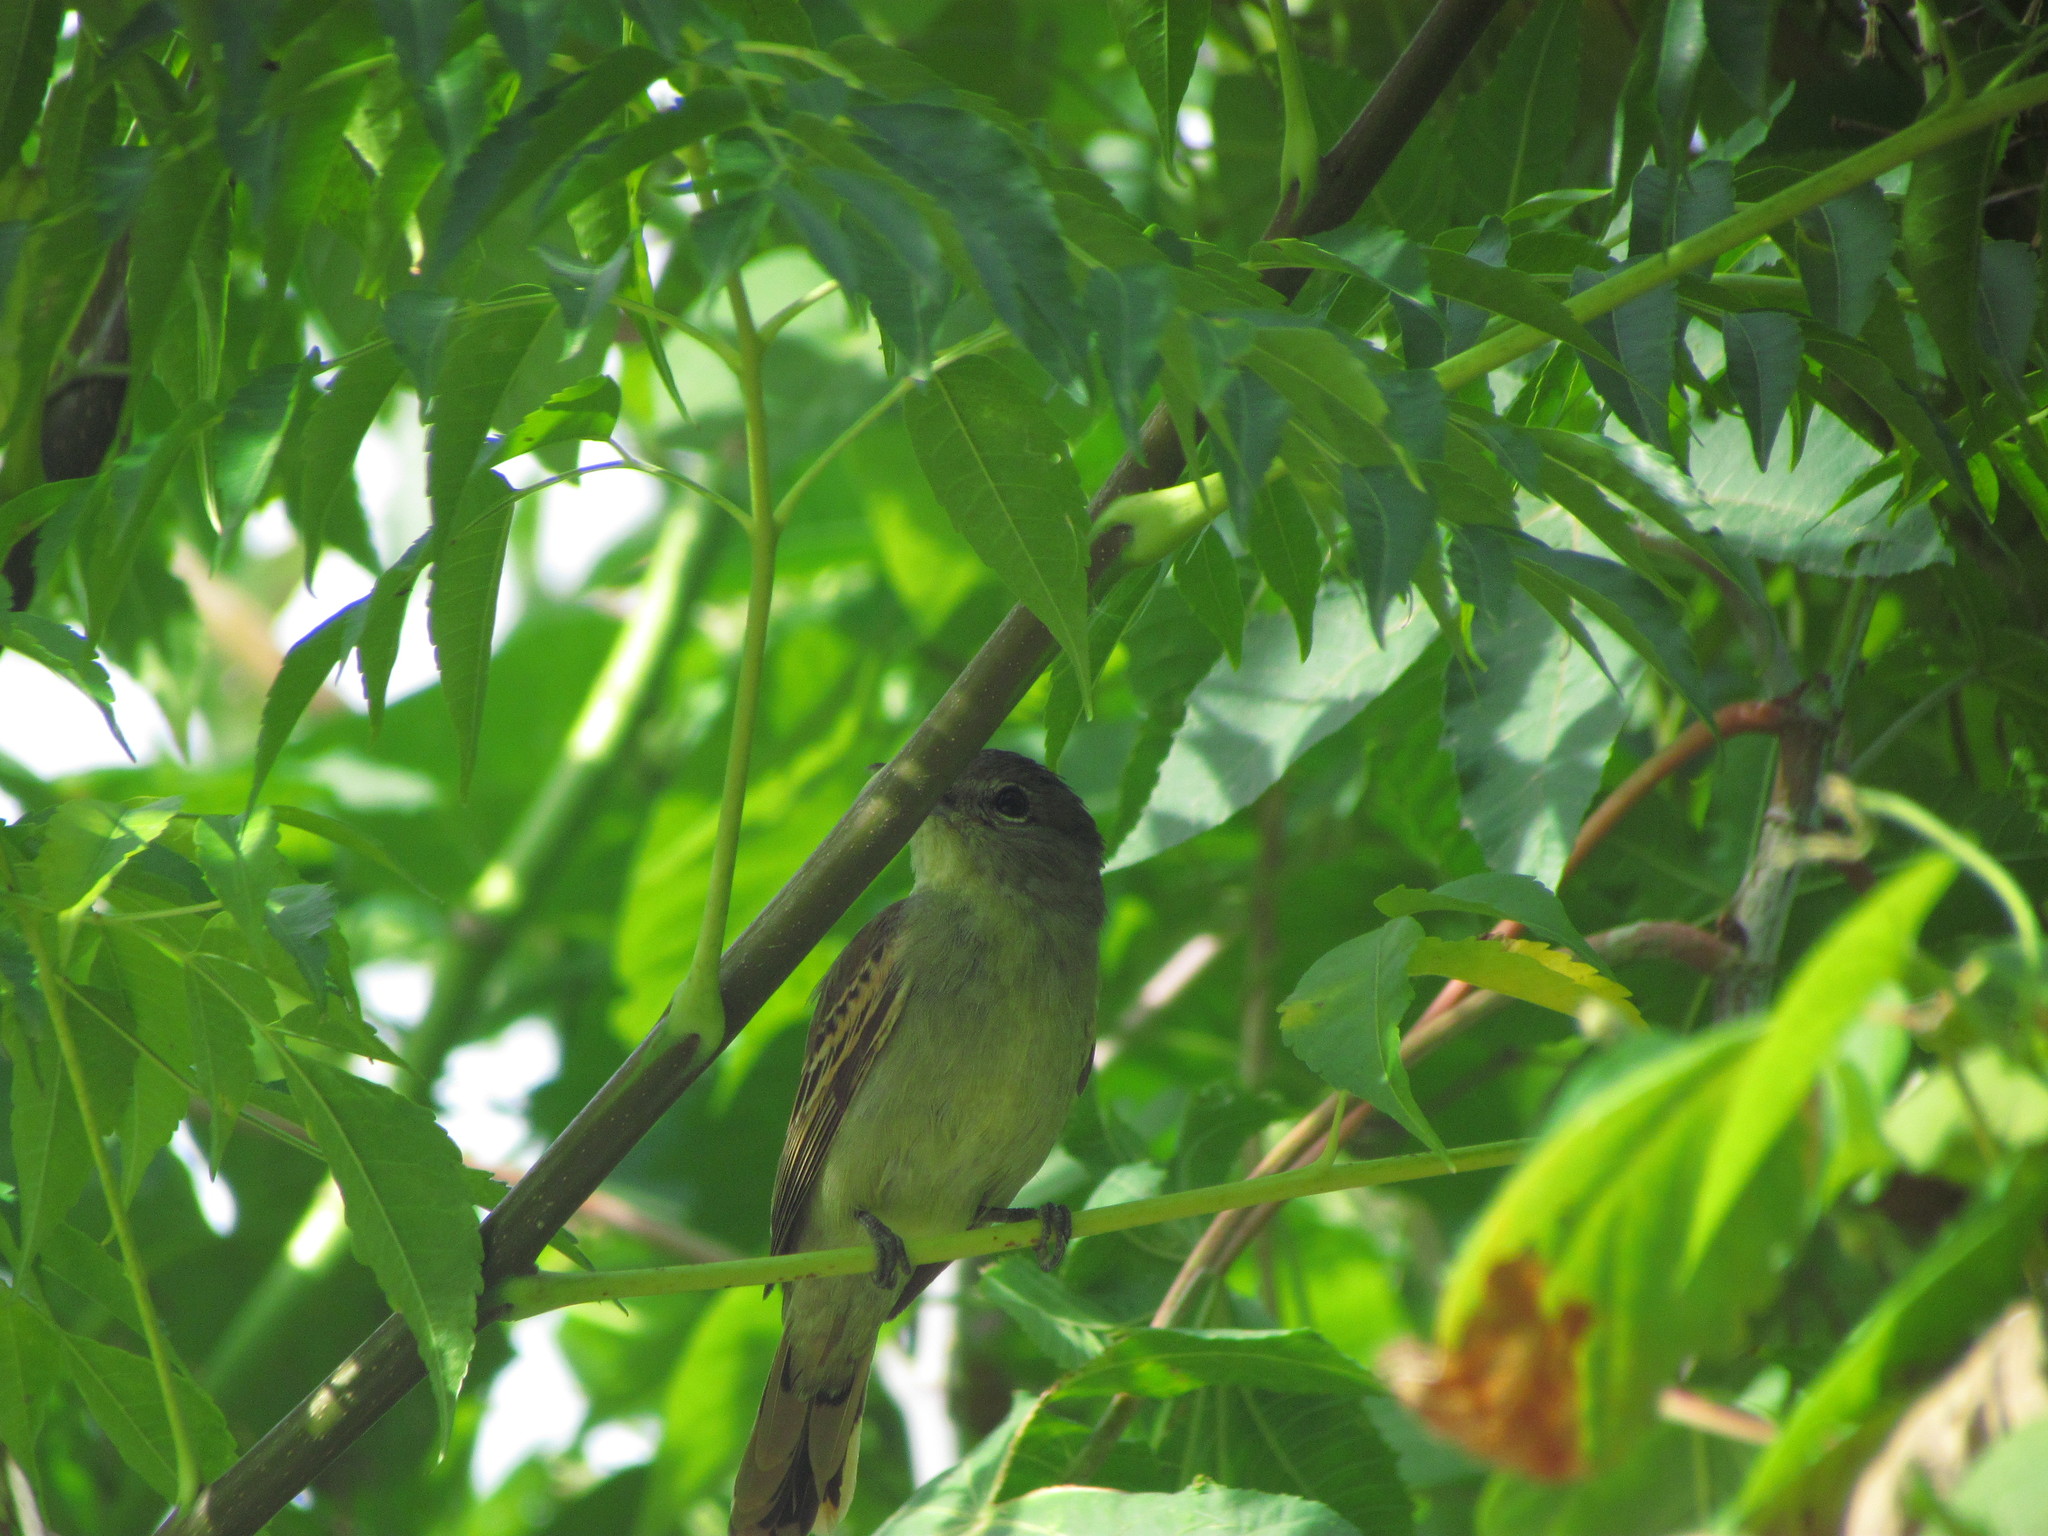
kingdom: Animalia
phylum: Chordata
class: Aves
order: Passeriformes
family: Cotingidae
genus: Pachyramphus
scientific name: Pachyramphus polychopterus
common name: White-winged becard
